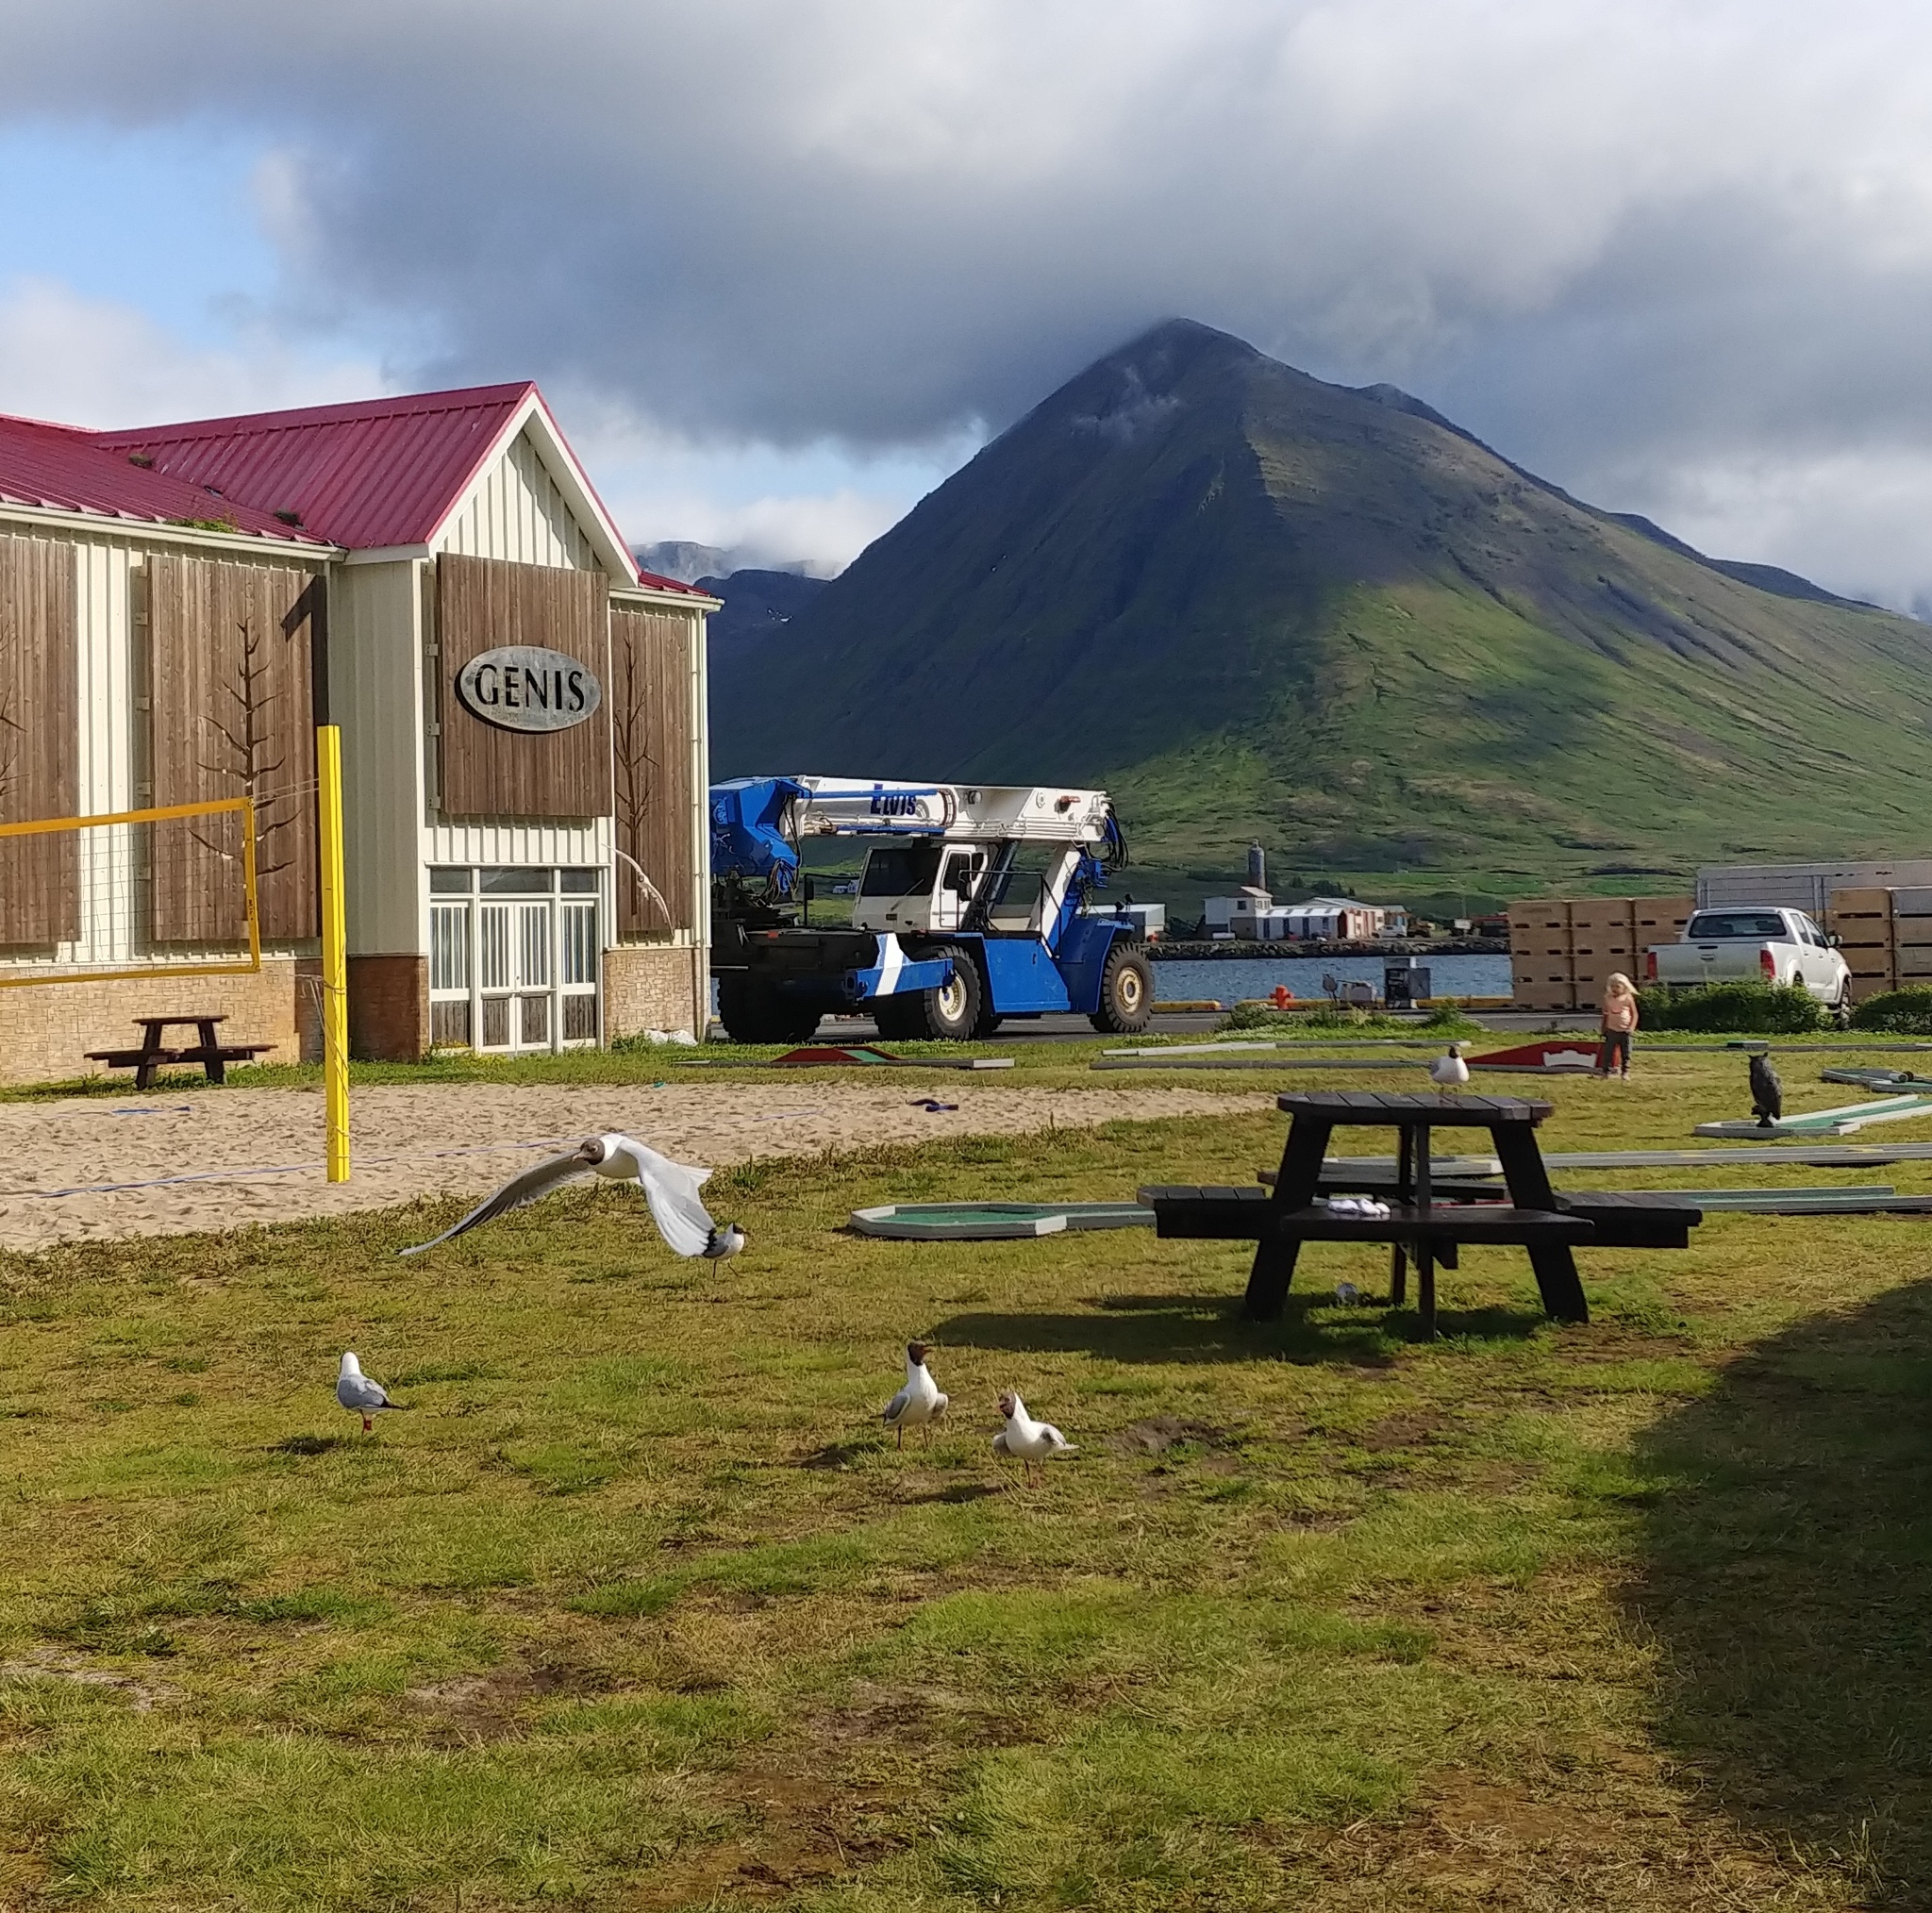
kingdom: Animalia
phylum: Chordata
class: Aves
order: Charadriiformes
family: Laridae
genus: Chroicocephalus
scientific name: Chroicocephalus ridibundus
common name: Black-headed gull
